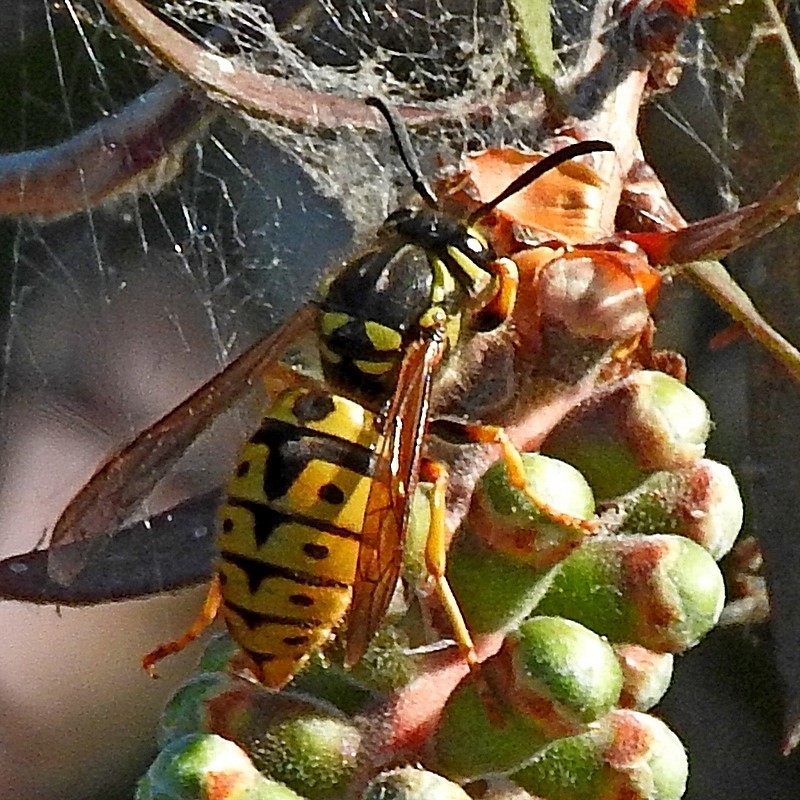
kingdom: Animalia
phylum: Arthropoda
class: Insecta
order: Hymenoptera
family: Vespidae
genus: Vespula
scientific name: Vespula germanica
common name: German wasp
